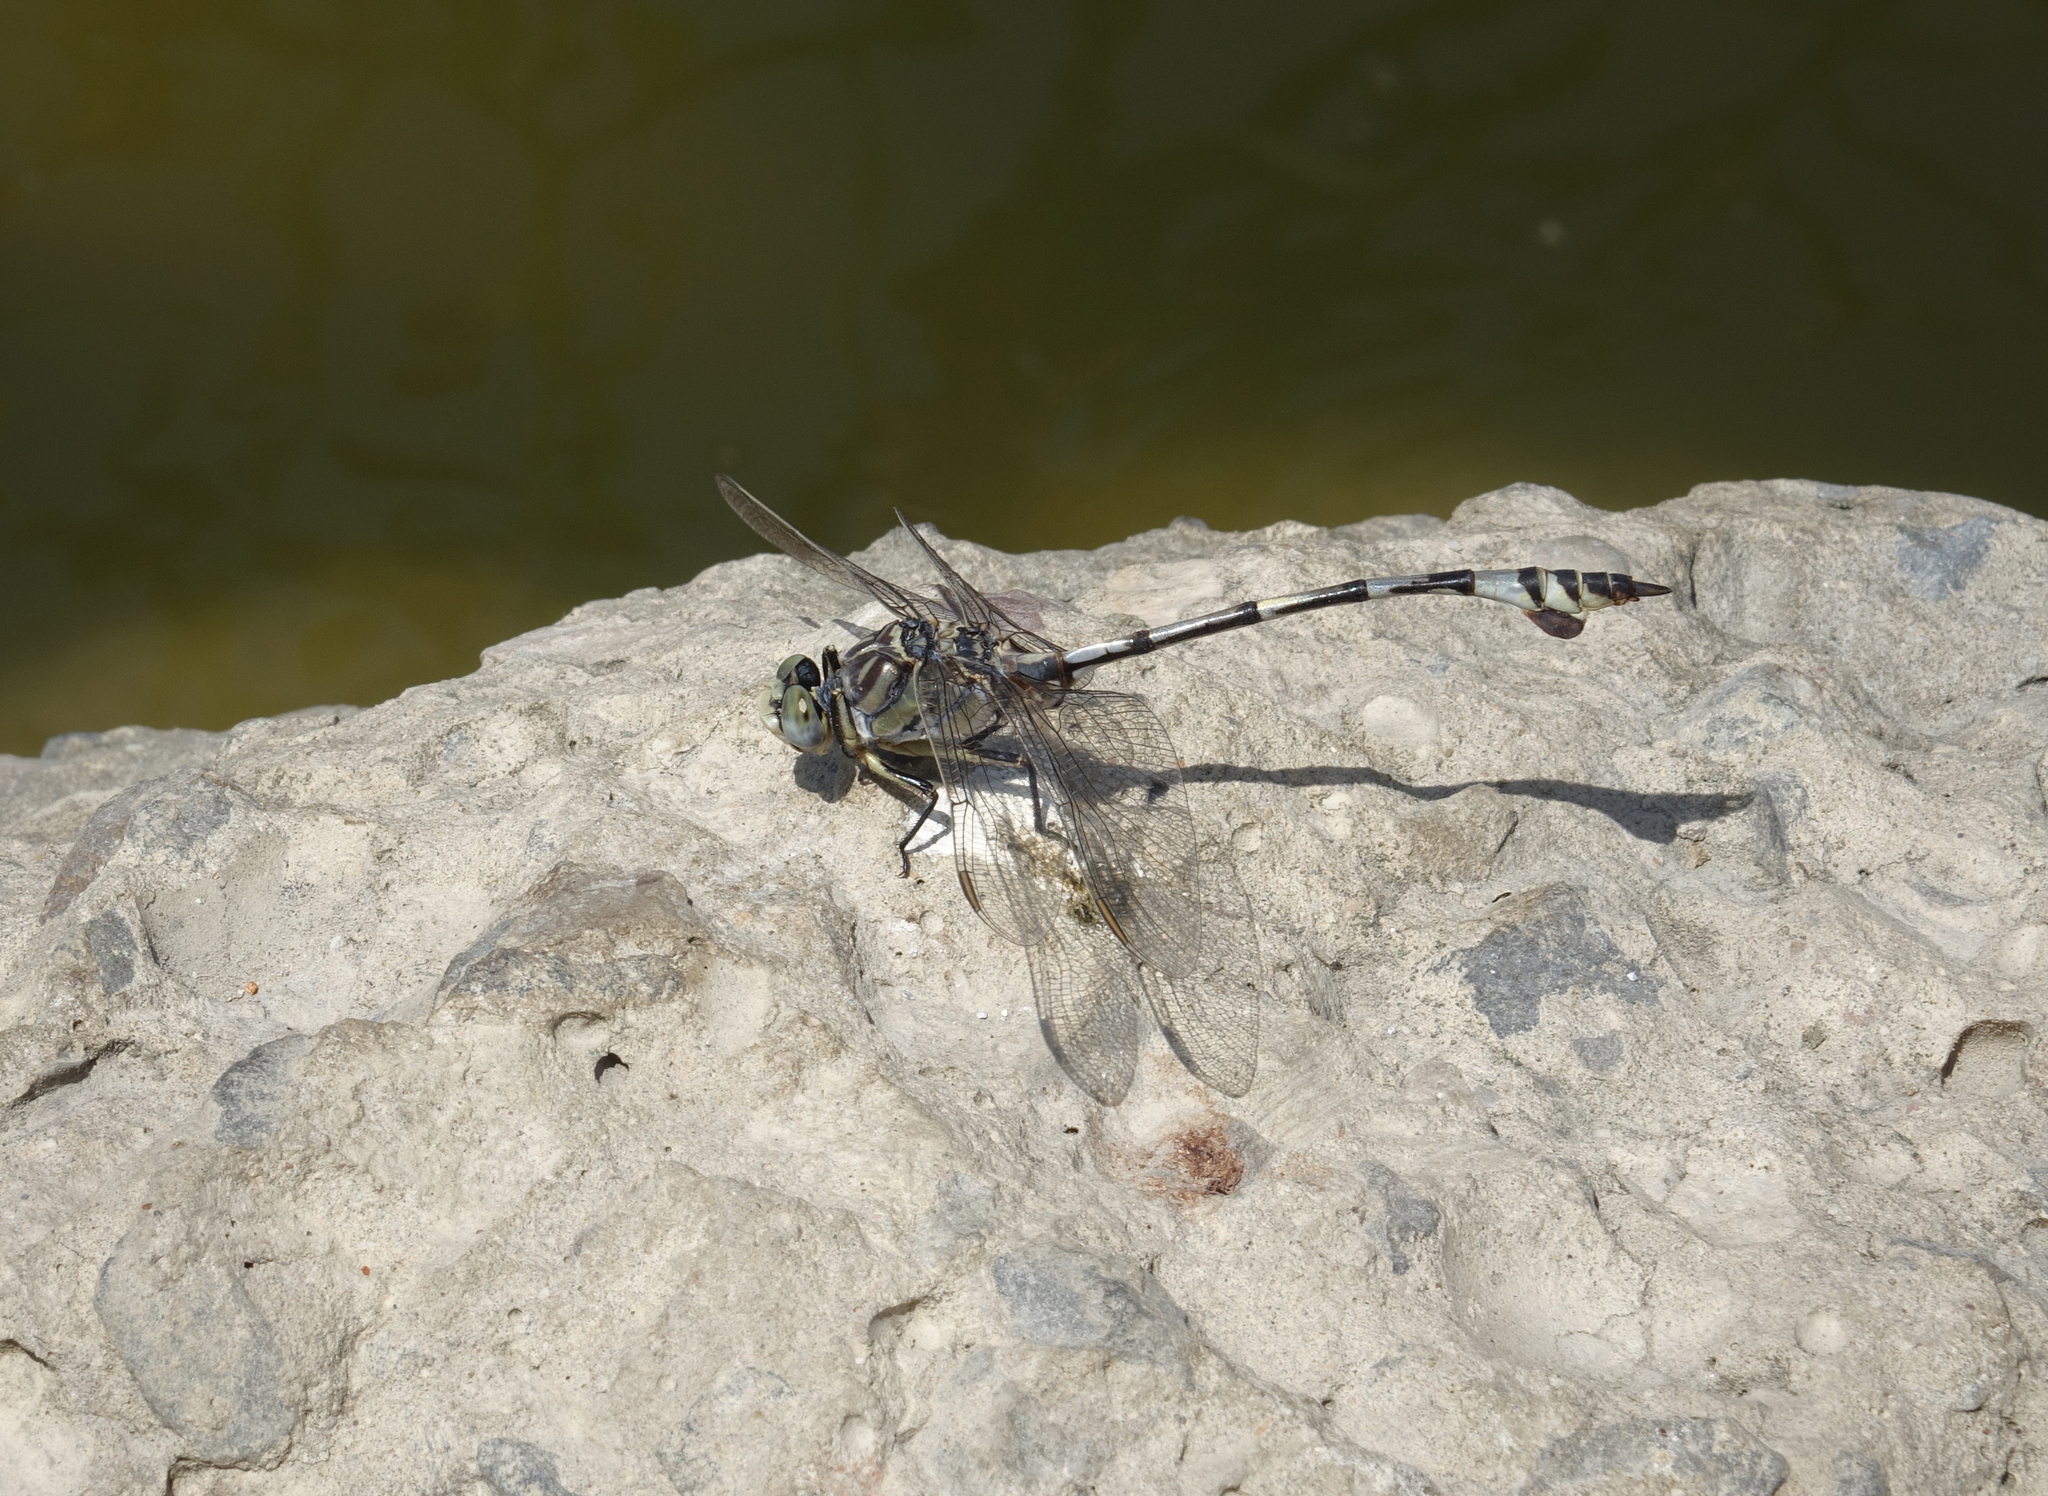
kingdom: Animalia
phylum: Arthropoda
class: Insecta
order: Odonata
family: Gomphidae
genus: Lindenia
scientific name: Lindenia tetraphylla
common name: Bladetail
